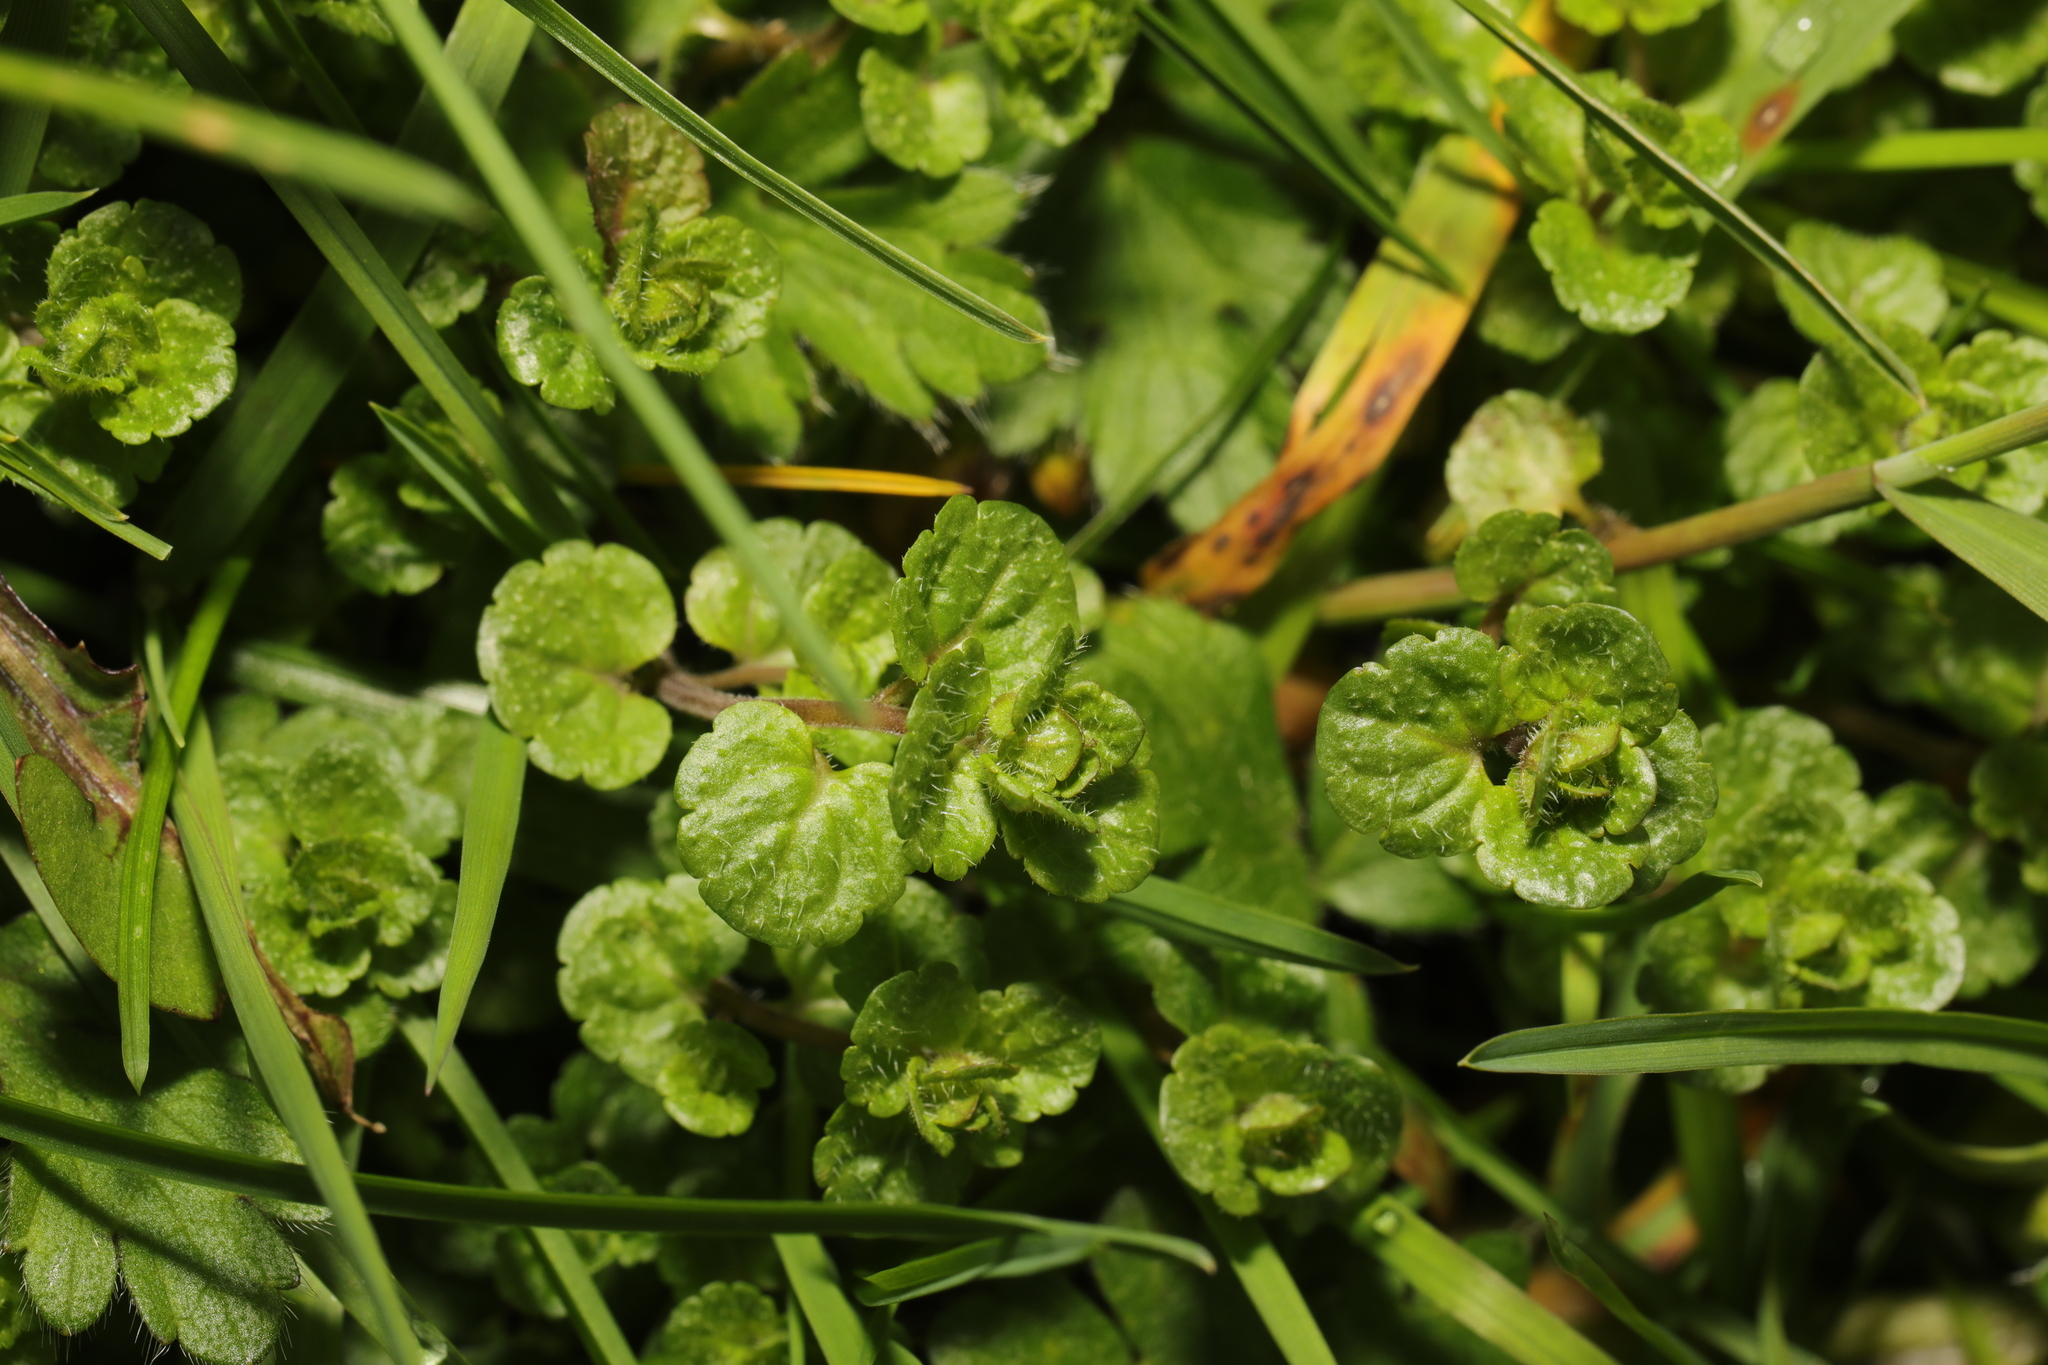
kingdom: Plantae
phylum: Tracheophyta
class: Magnoliopsida
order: Lamiales
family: Plantaginaceae
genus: Veronica
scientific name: Veronica filiformis
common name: Slender speedwell
